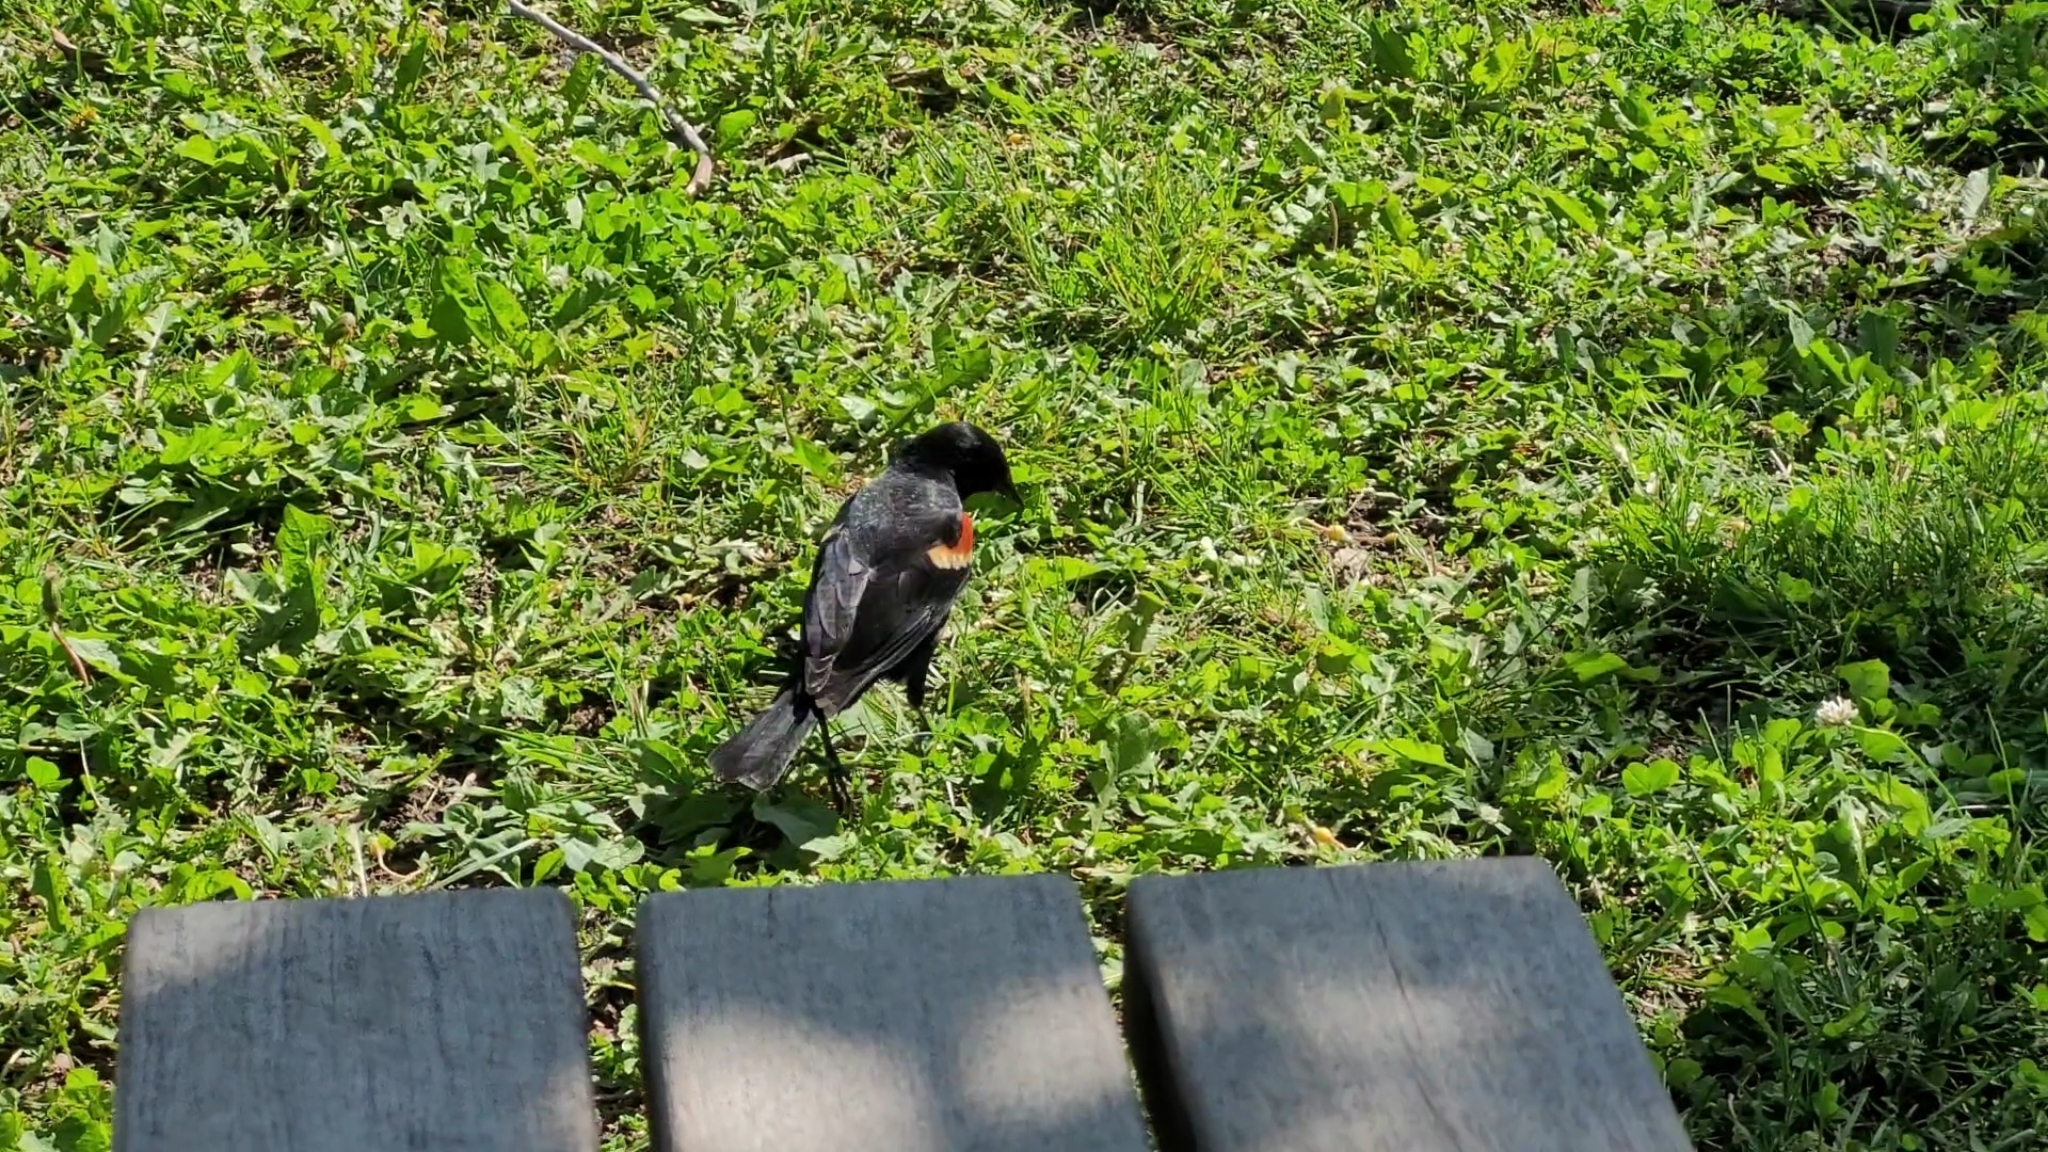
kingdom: Animalia
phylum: Chordata
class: Aves
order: Passeriformes
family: Icteridae
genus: Agelaius
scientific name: Agelaius phoeniceus
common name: Red-winged blackbird
